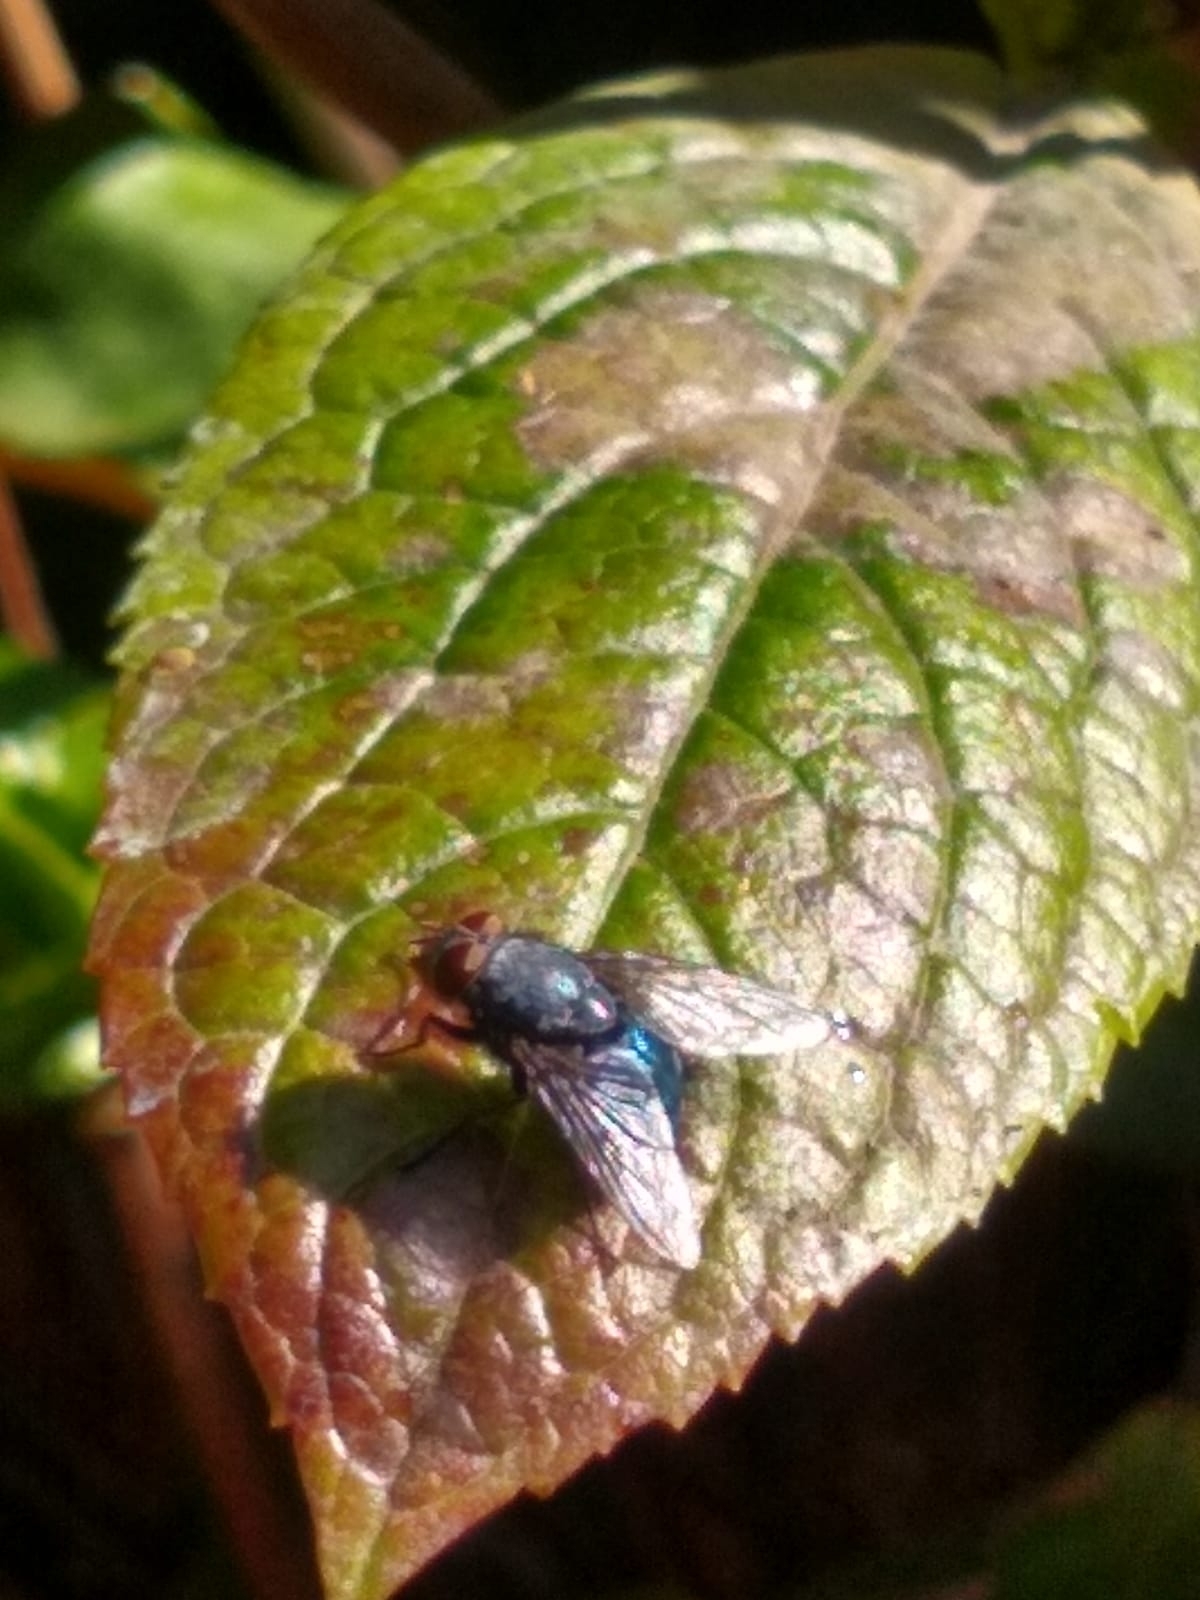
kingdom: Animalia
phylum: Arthropoda
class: Insecta
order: Diptera
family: Calliphoridae
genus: Calliphora
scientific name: Calliphora vicina
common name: Common blow flie
